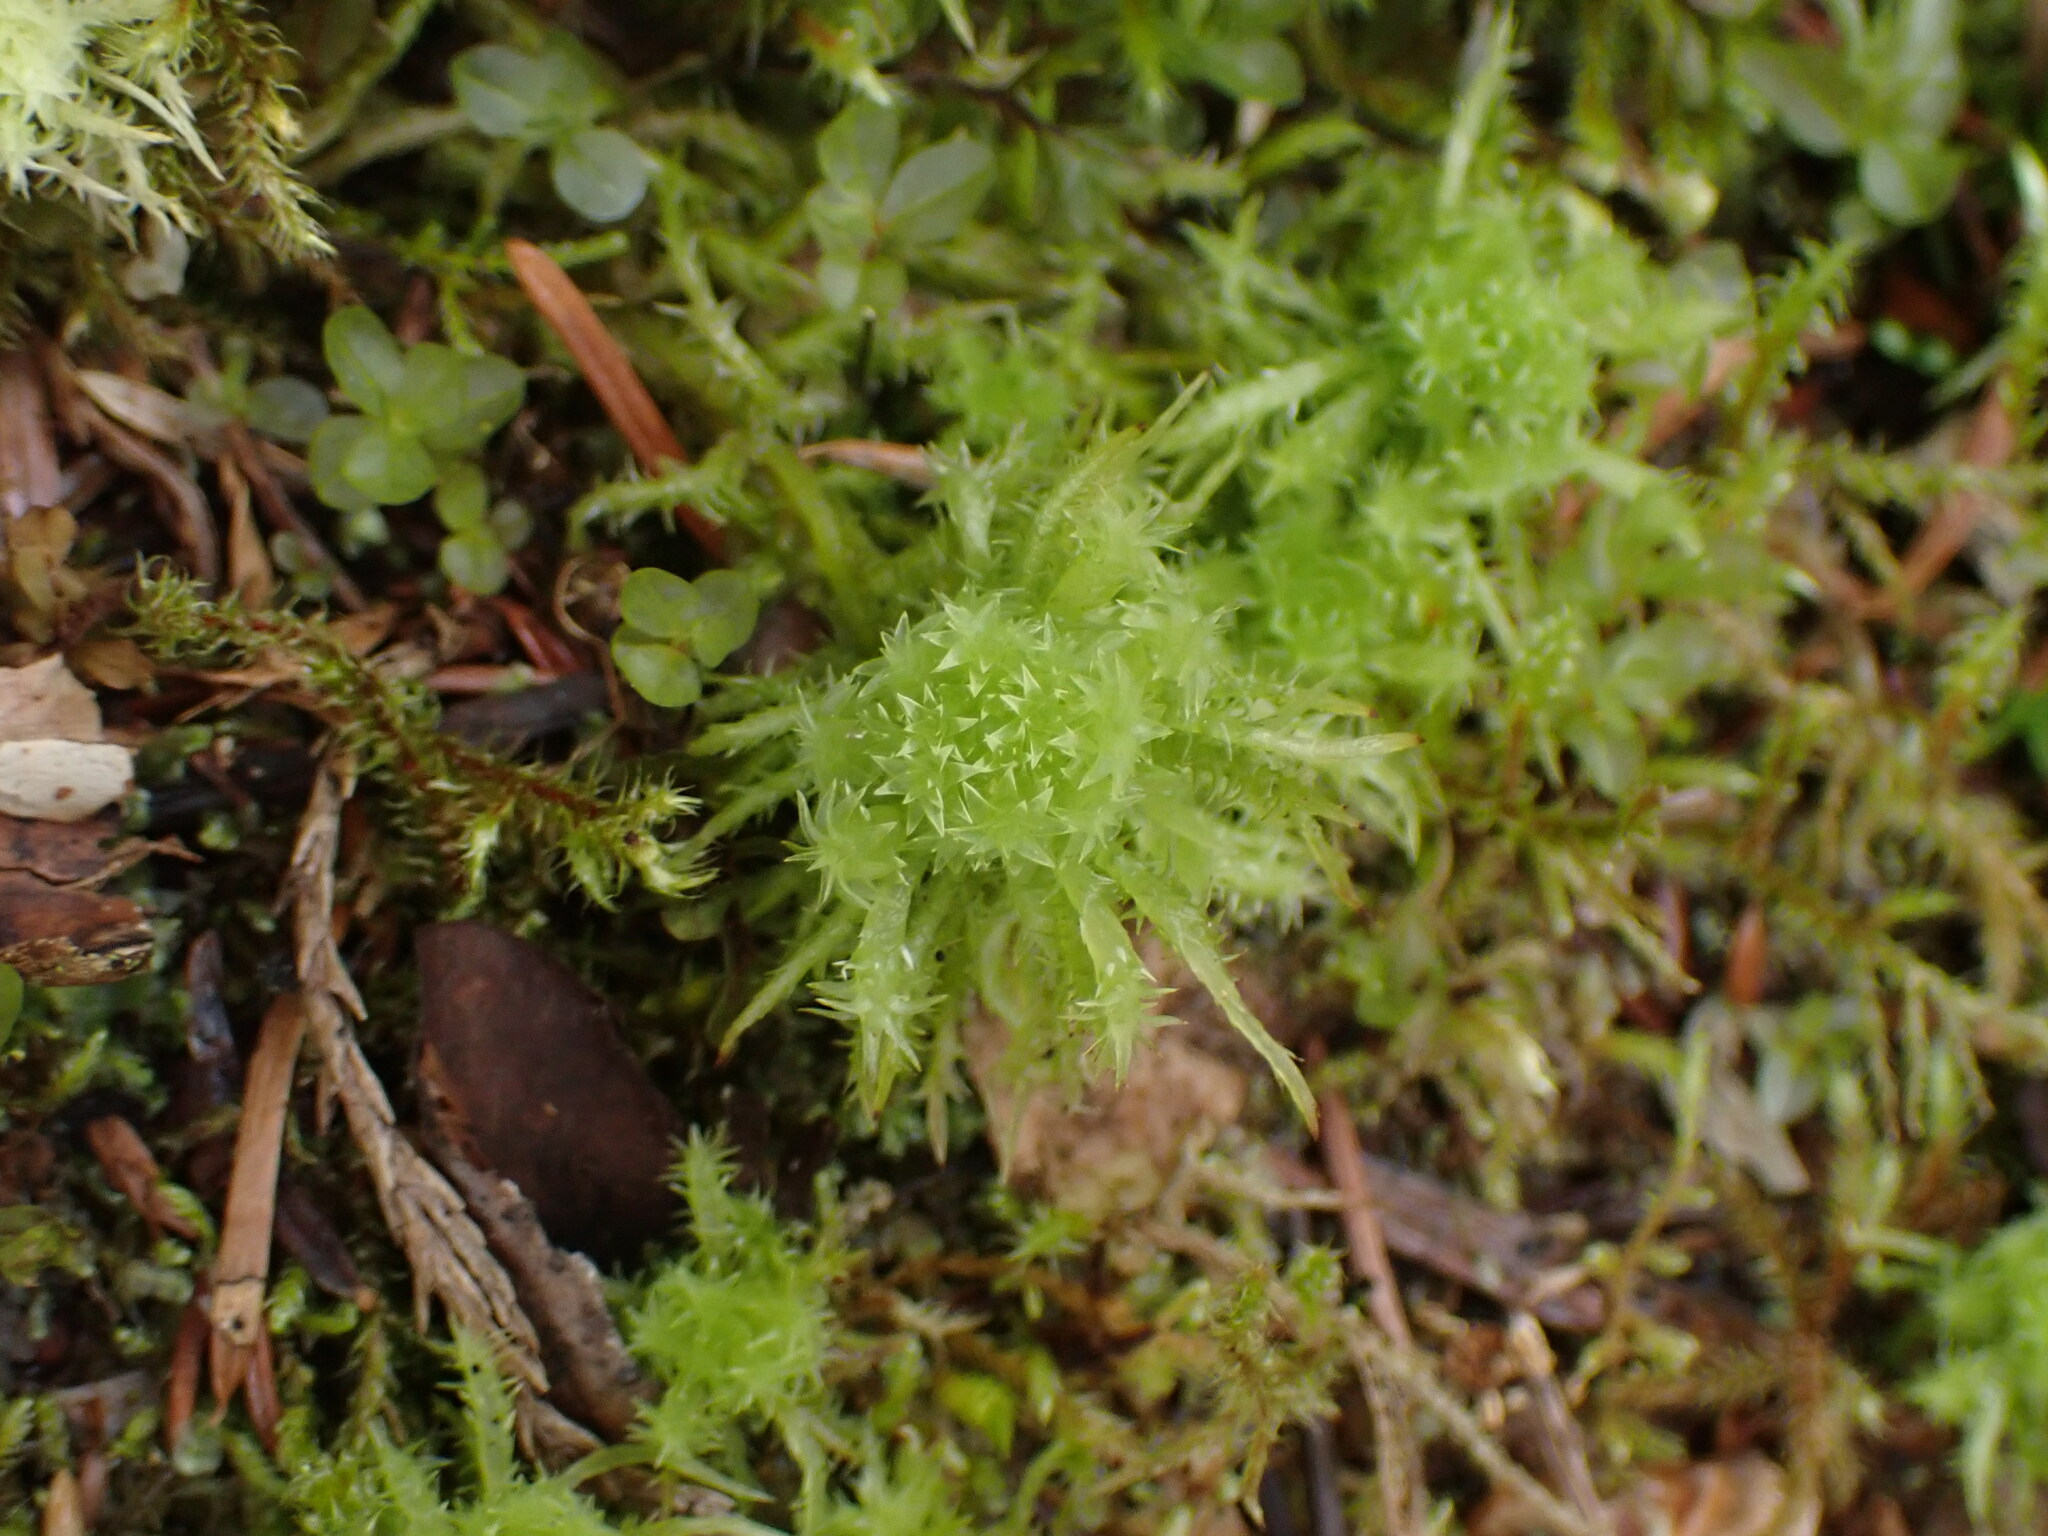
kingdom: Plantae
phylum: Bryophyta
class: Sphagnopsida
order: Sphagnales
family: Sphagnaceae
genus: Sphagnum
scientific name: Sphagnum squarrosum
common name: Shaggy peat moss
